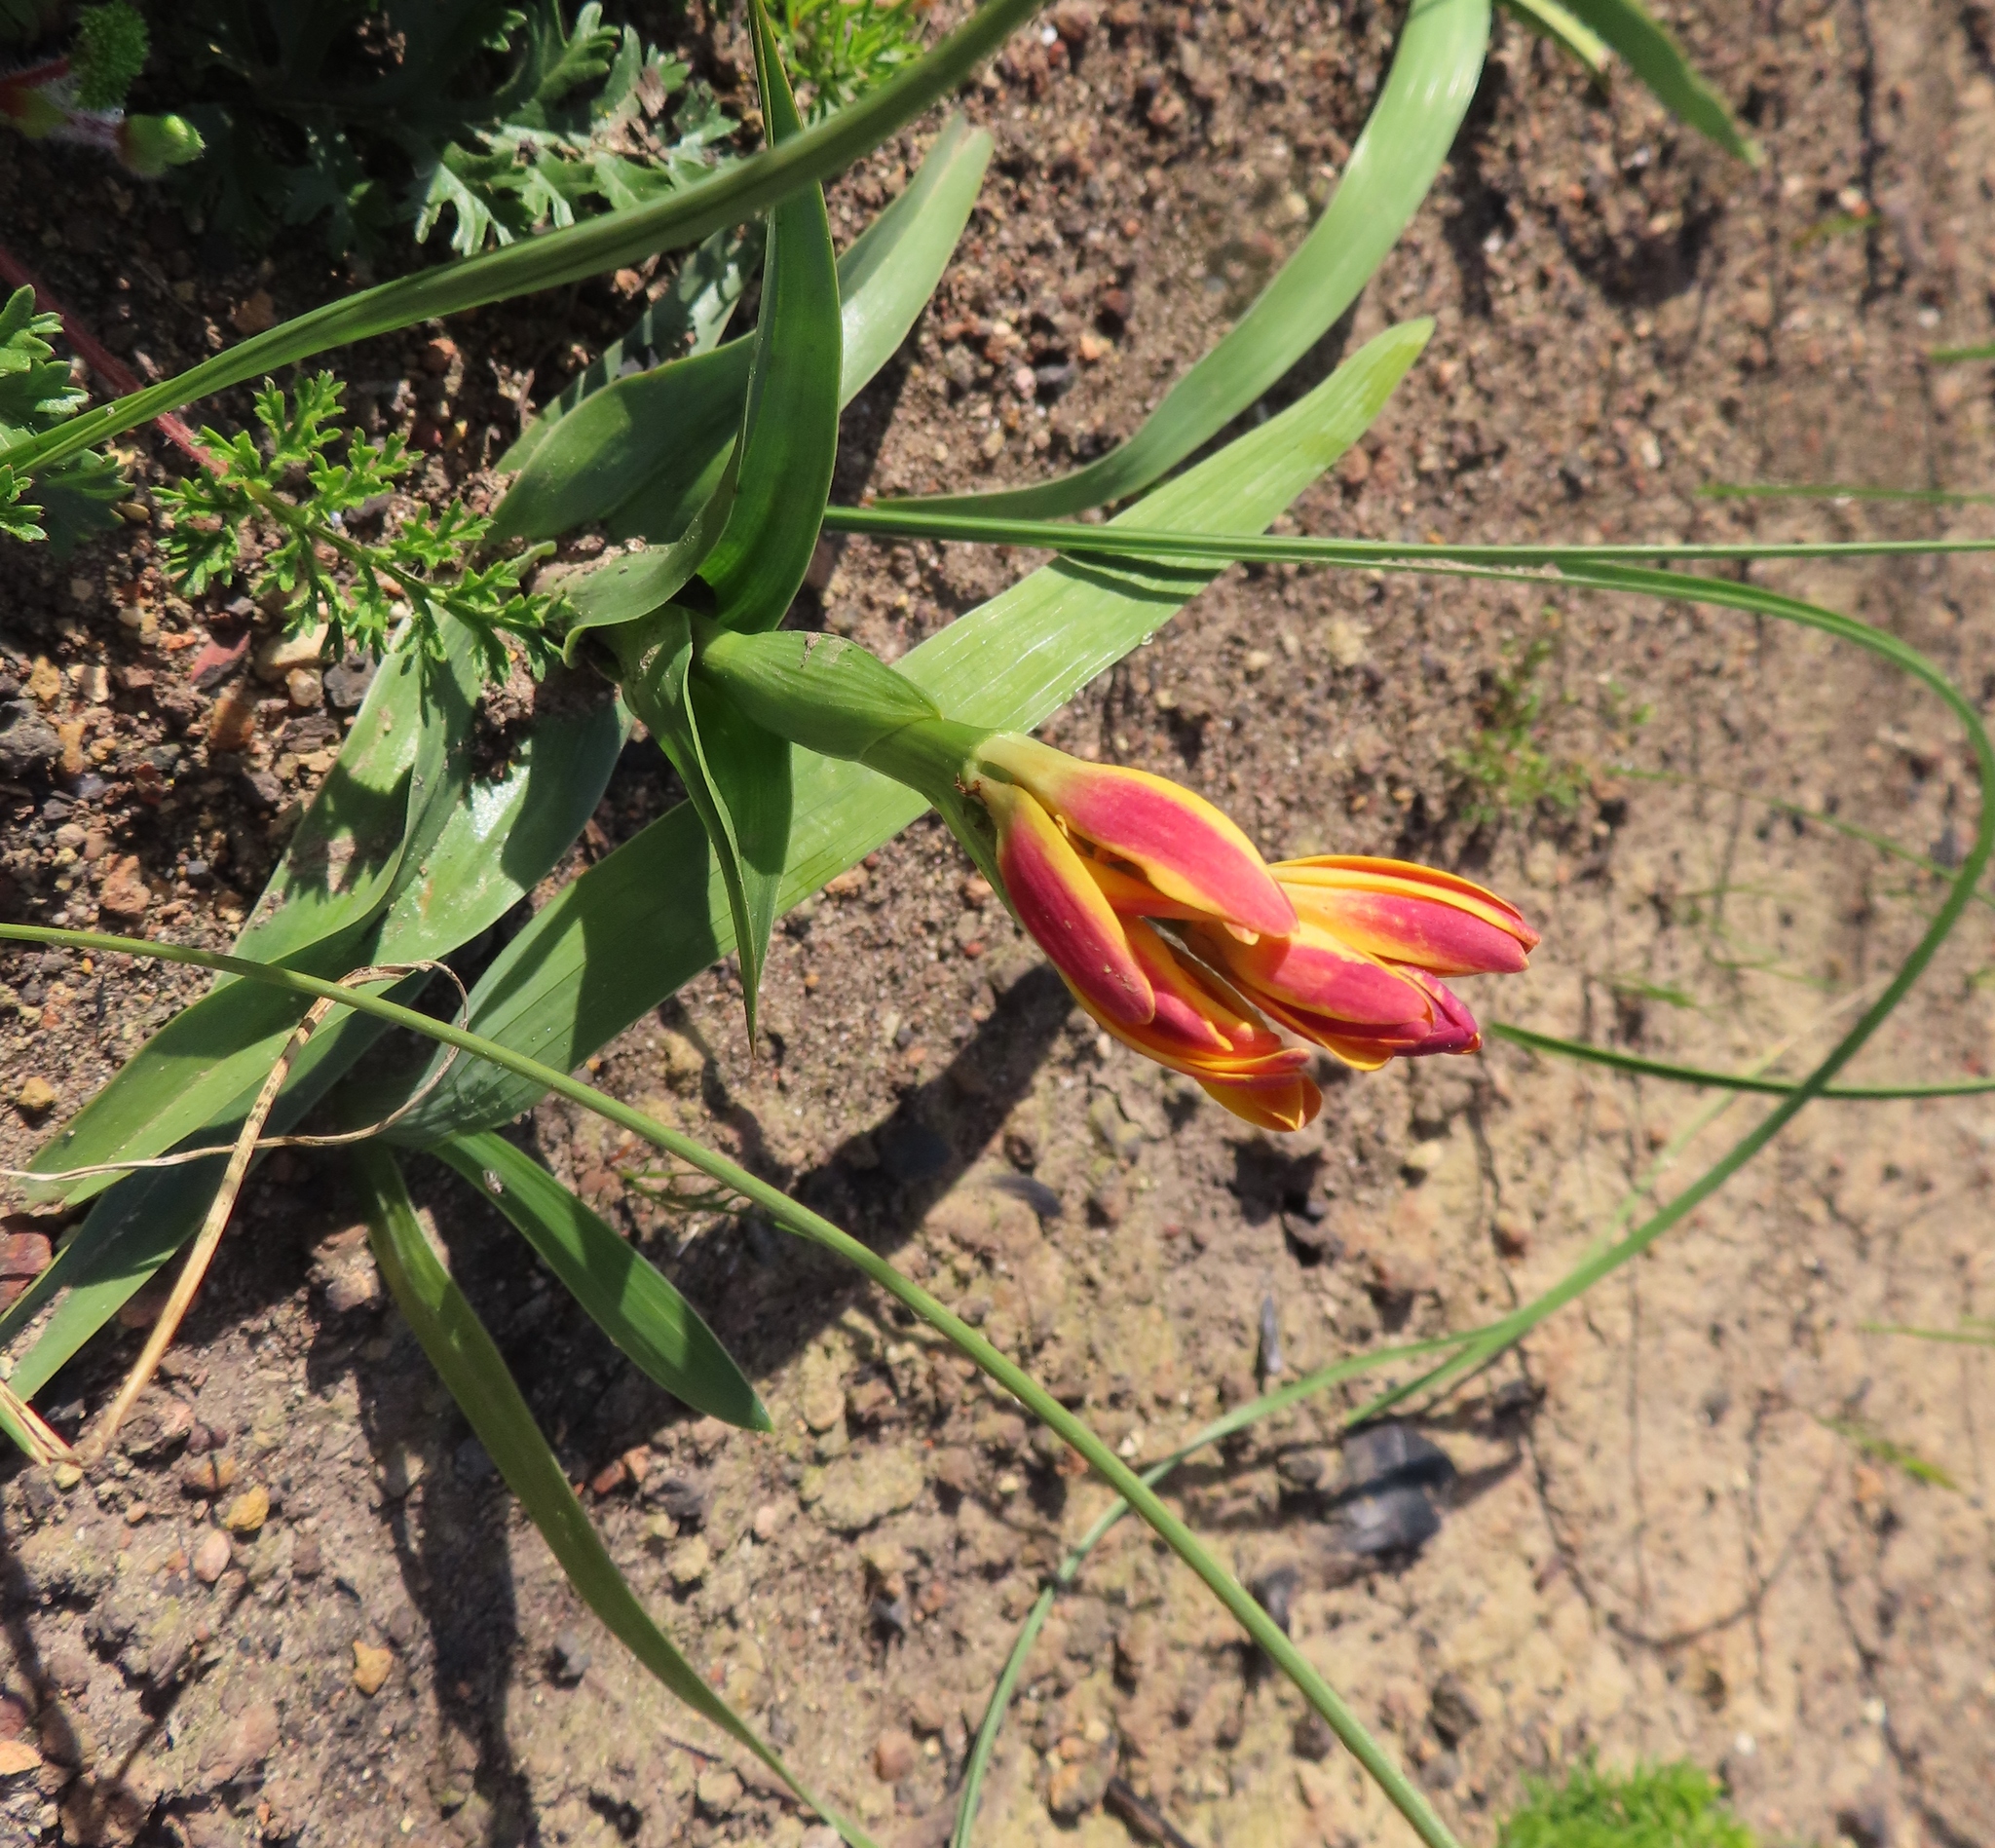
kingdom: Plantae
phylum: Tracheophyta
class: Liliopsida
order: Liliales
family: Colchicaceae
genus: Baeometra
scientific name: Baeometra uniflora
